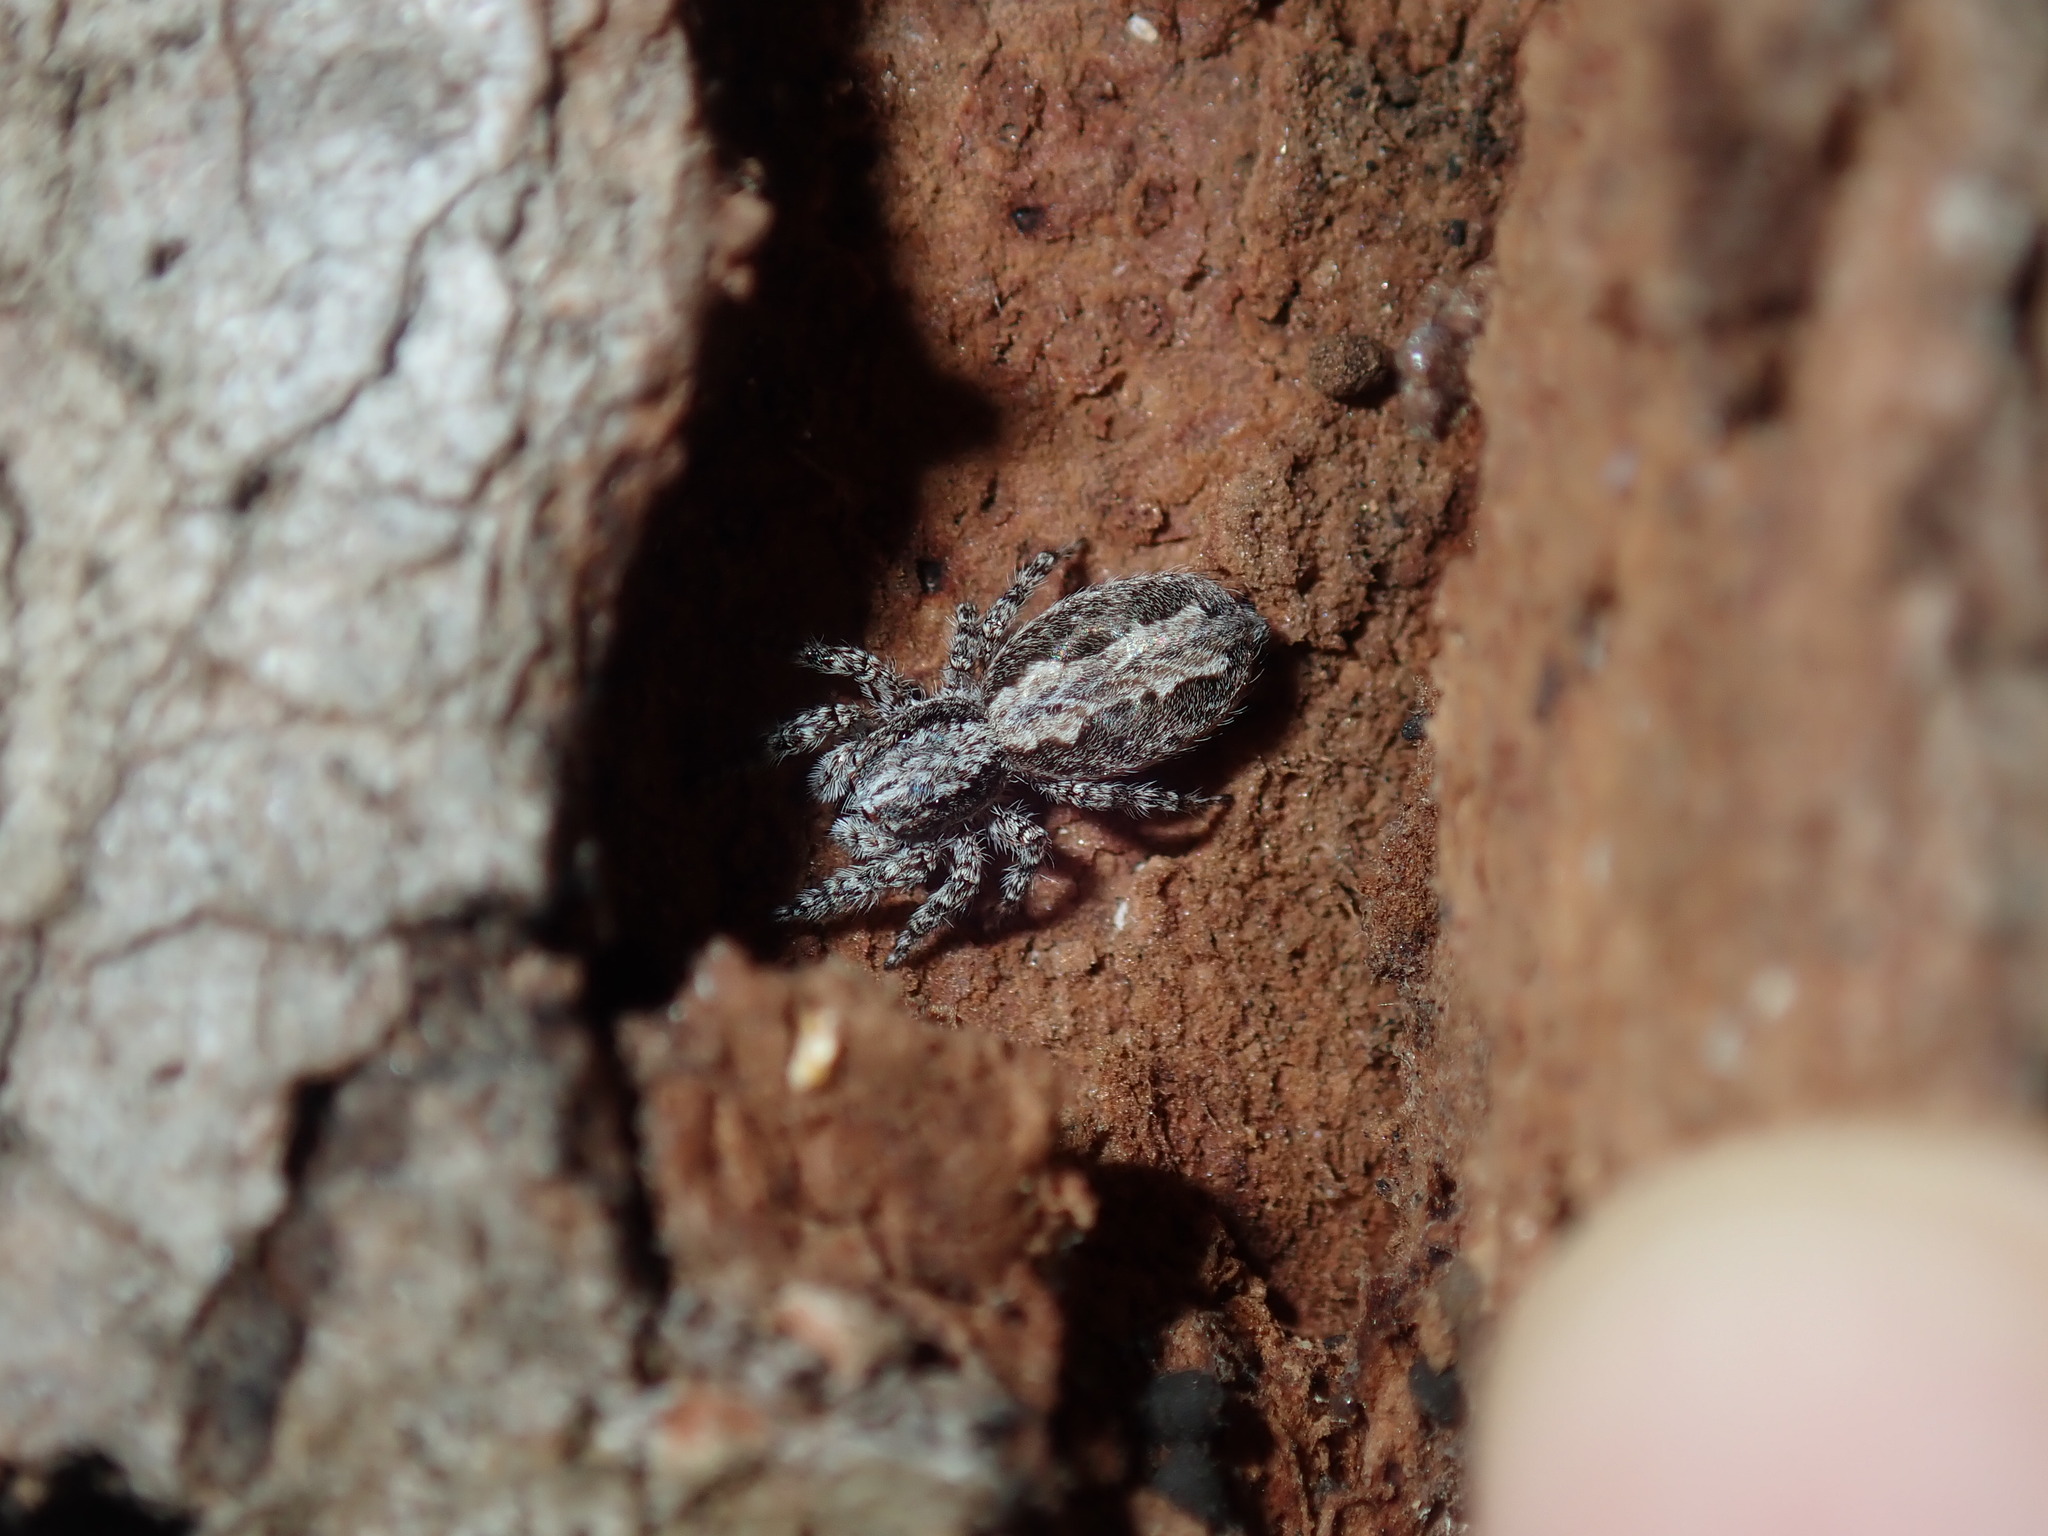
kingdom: Animalia
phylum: Arthropoda
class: Arachnida
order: Araneae
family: Salticidae
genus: Clynotis
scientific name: Clynotis severus
